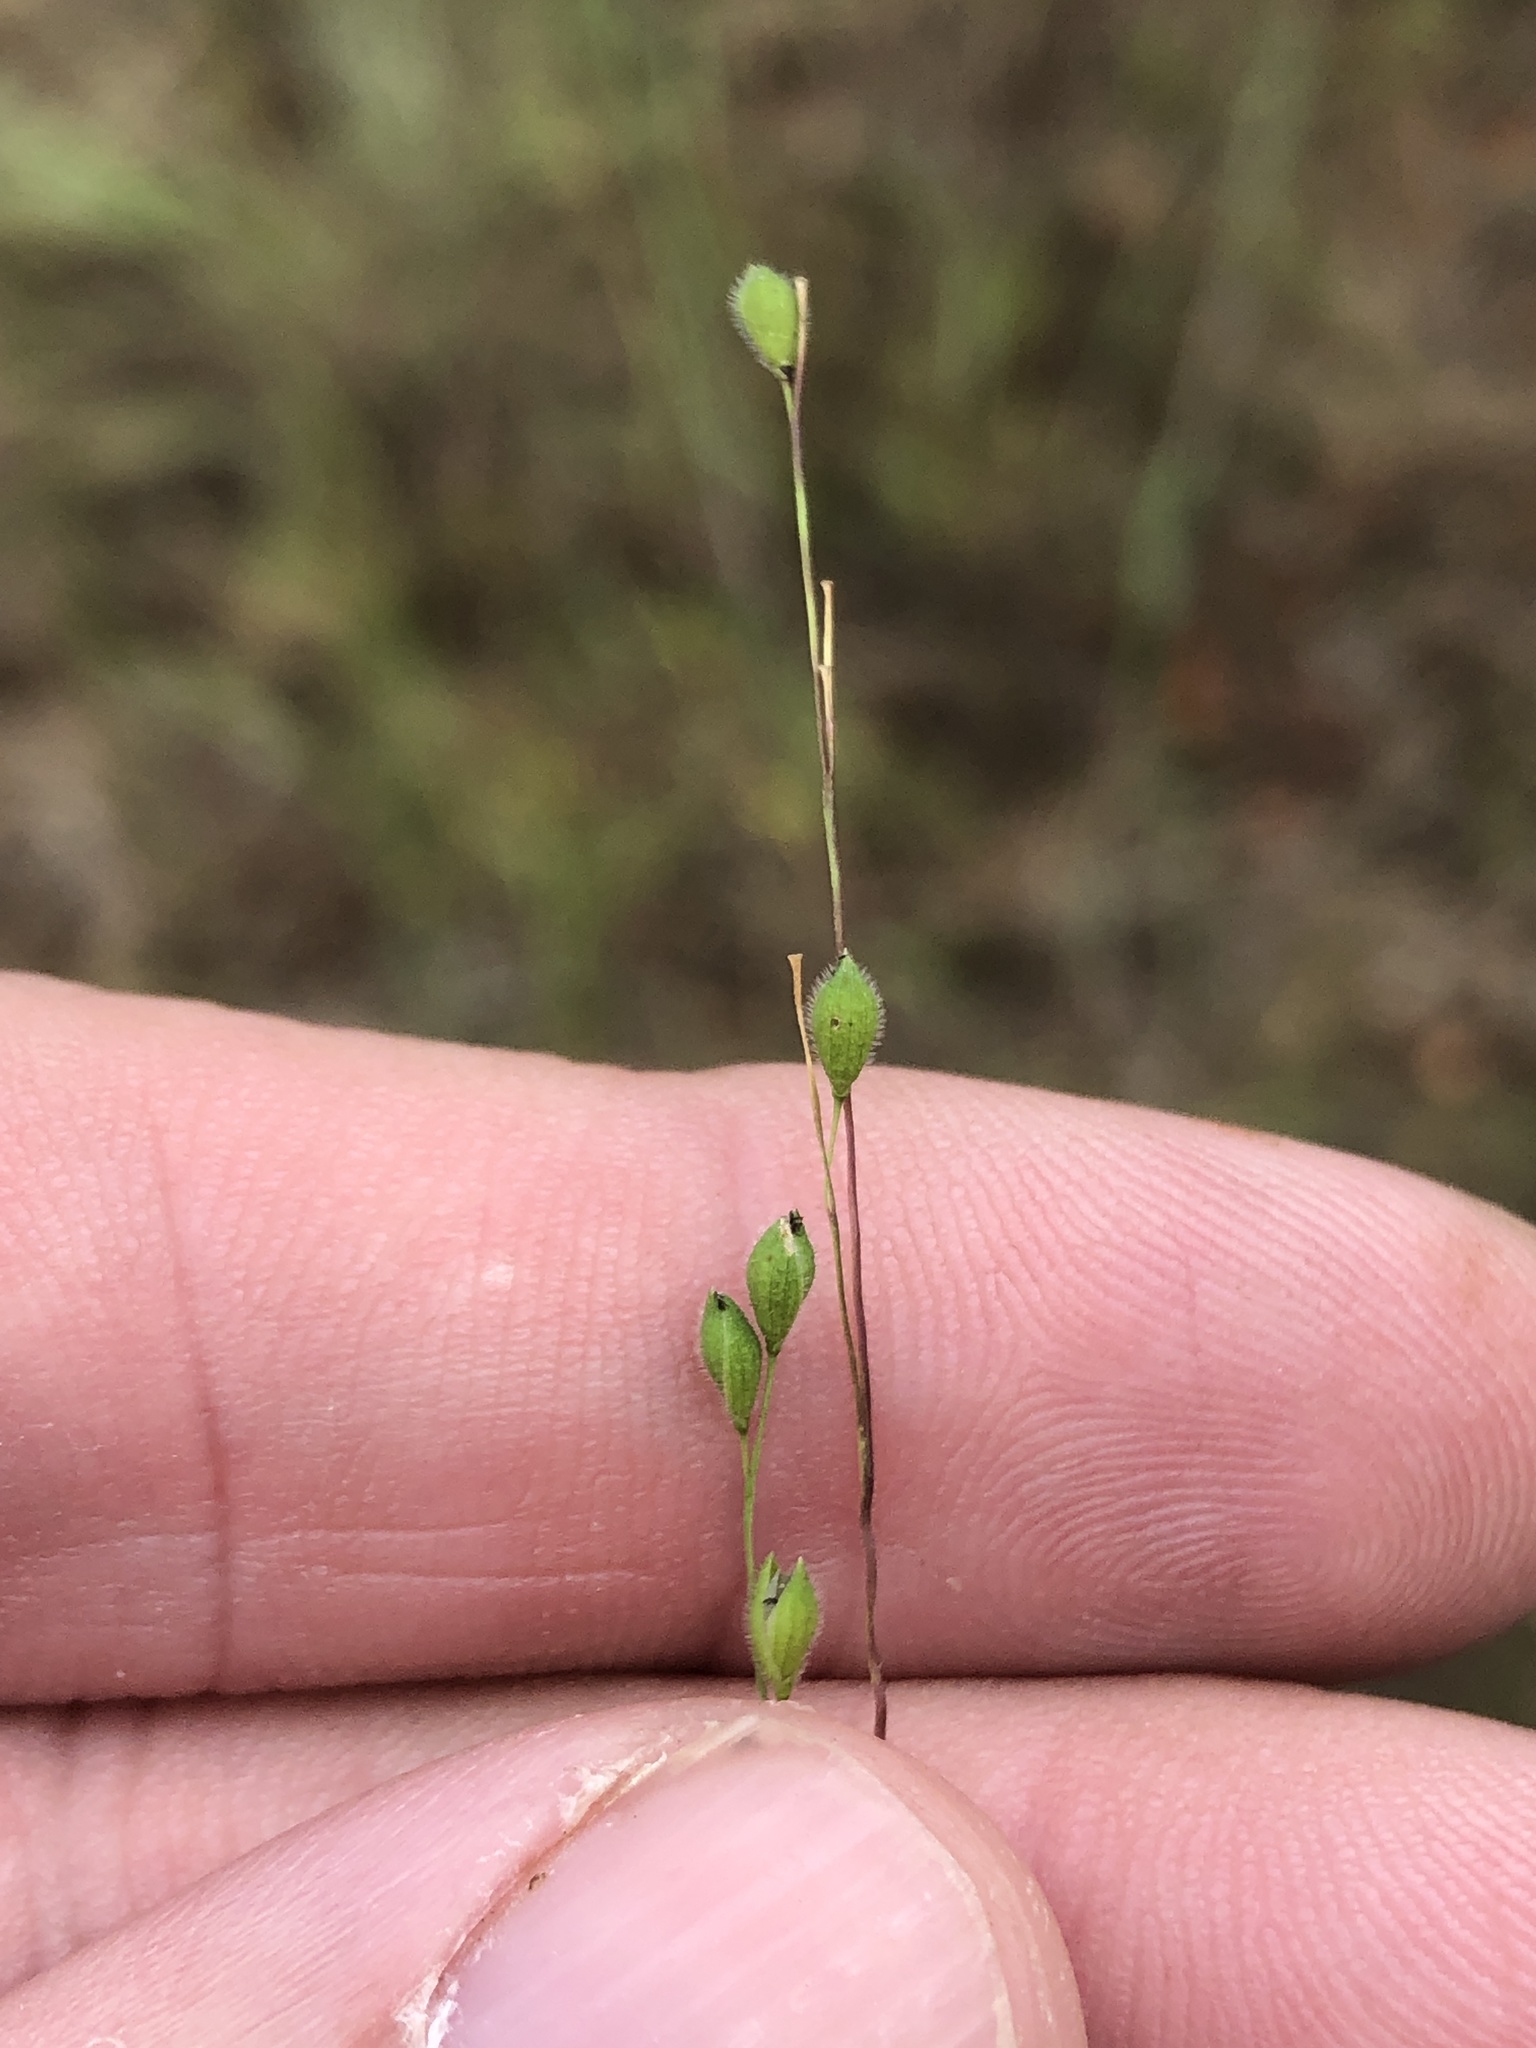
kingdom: Plantae
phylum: Tracheophyta
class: Liliopsida
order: Poales
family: Poaceae
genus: Kellochloa
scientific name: Kellochloa brachyantha
